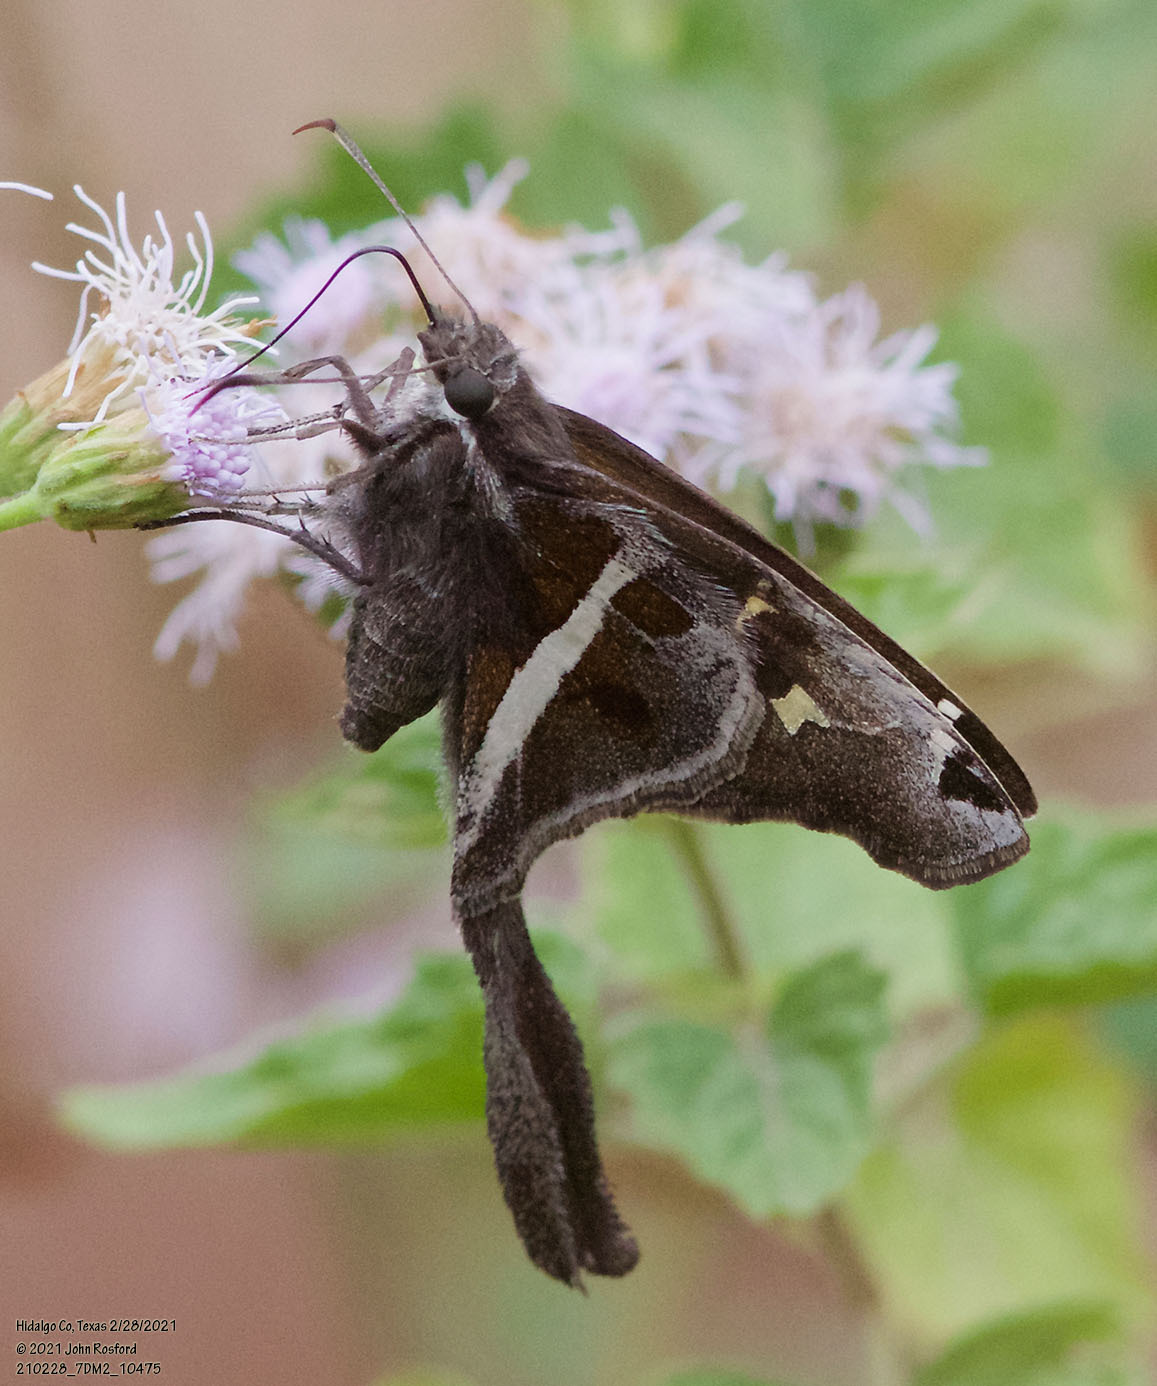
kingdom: Animalia
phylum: Arthropoda
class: Insecta
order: Lepidoptera
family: Hesperiidae
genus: Chioides
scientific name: Chioides catillus
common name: Silverbanded skipper
